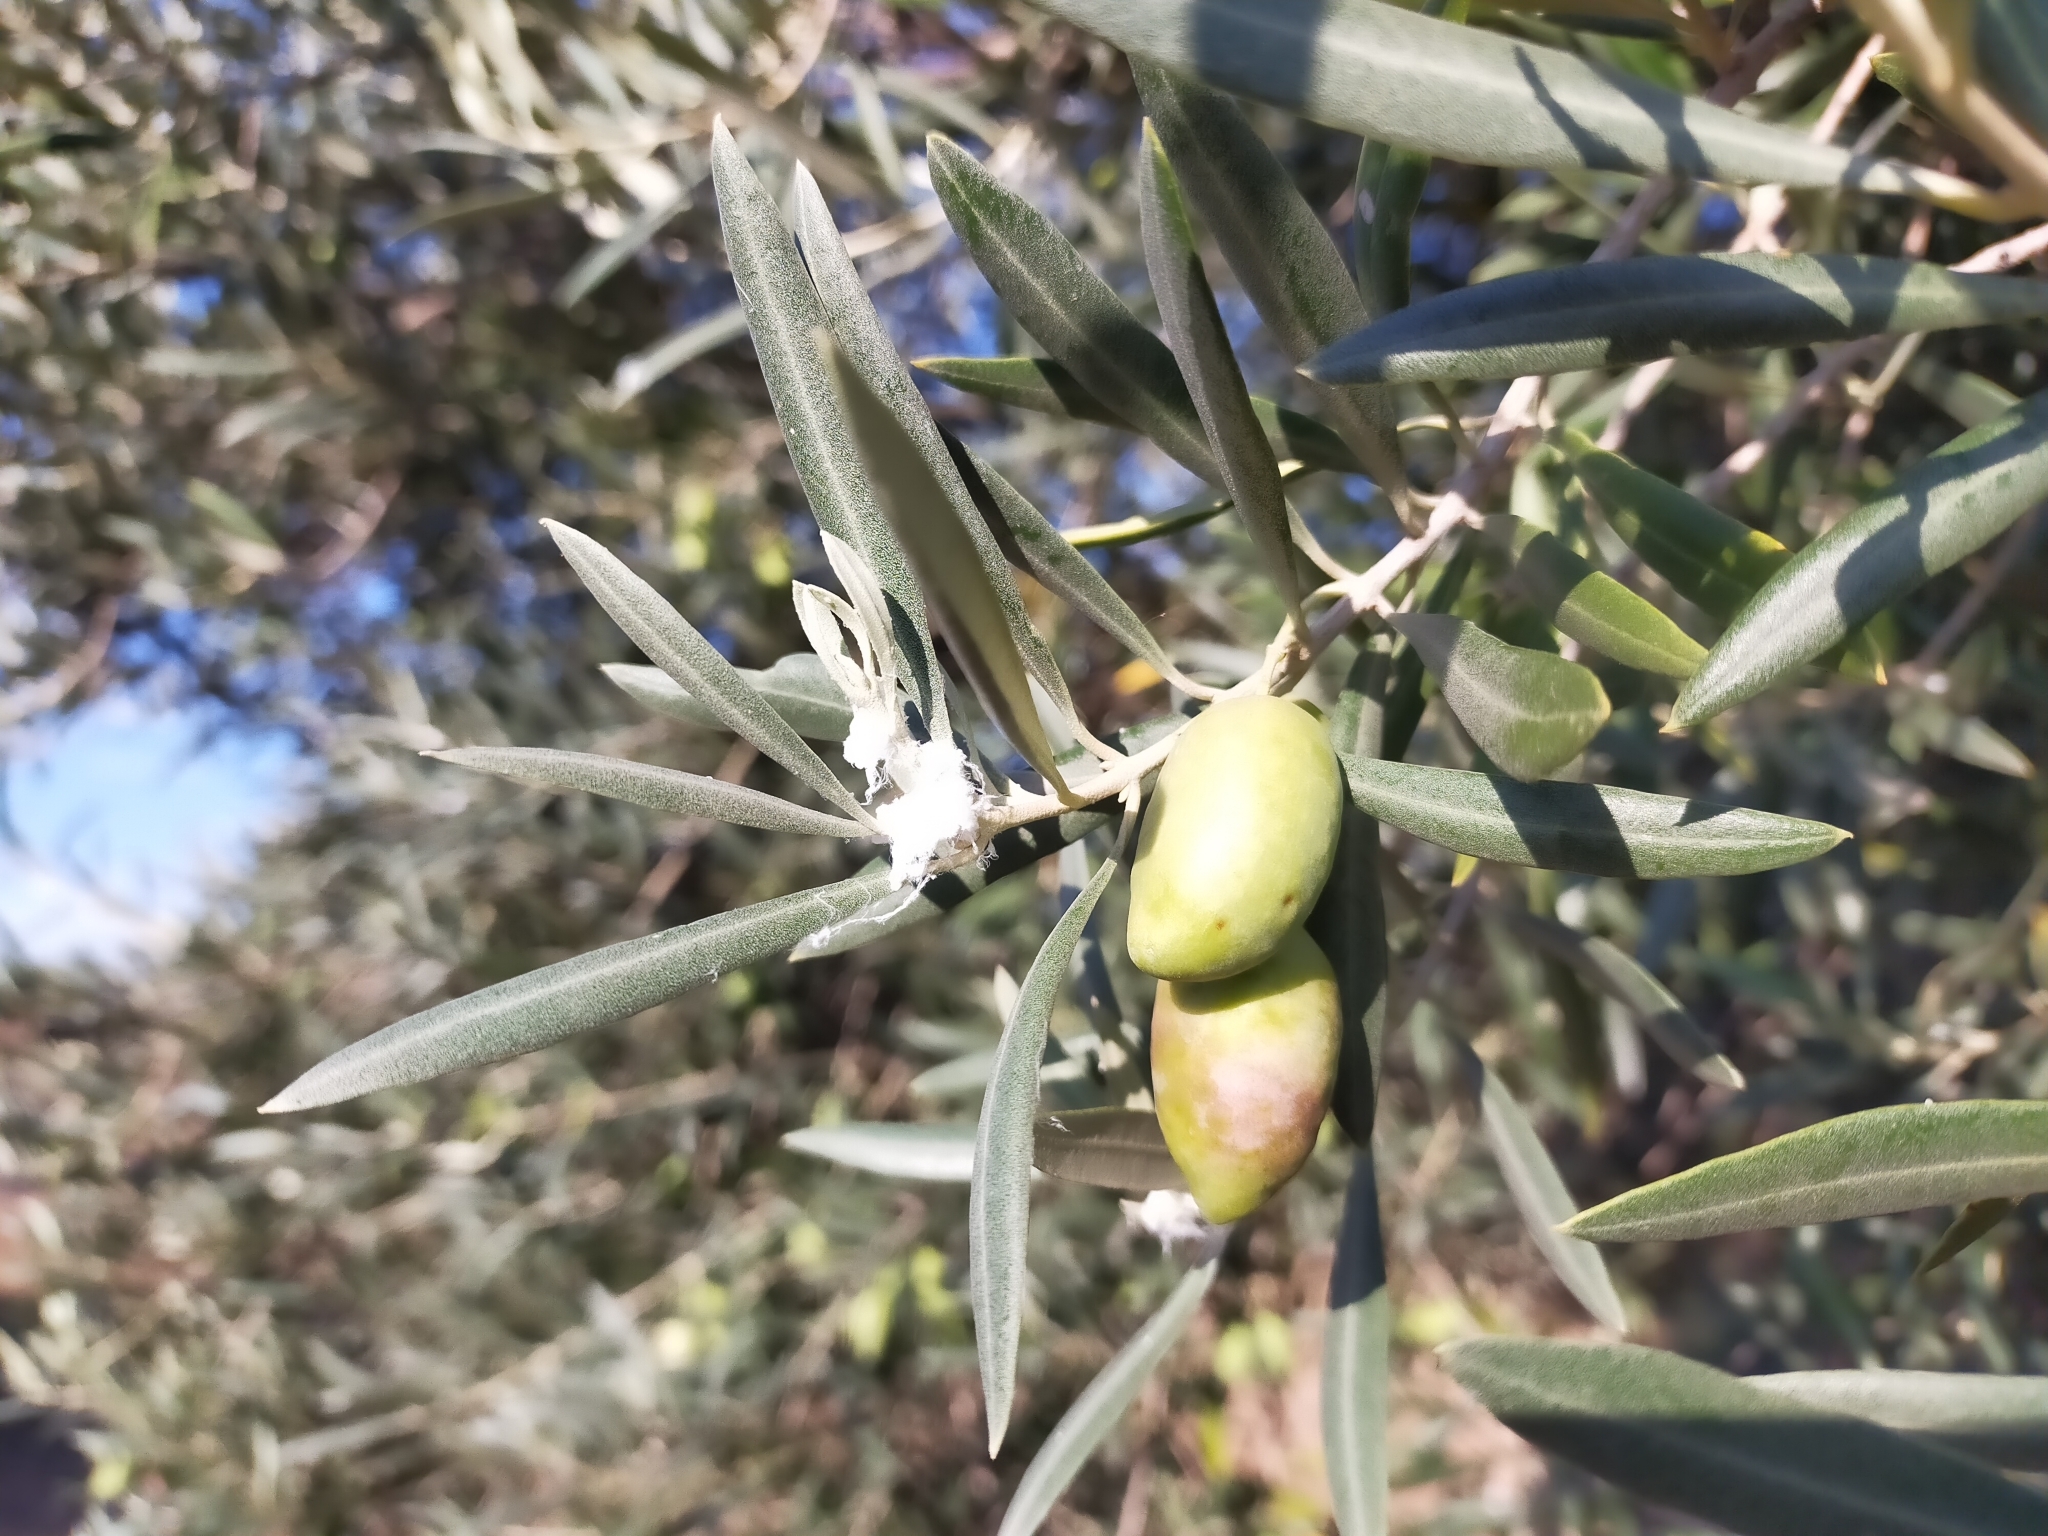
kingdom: Animalia
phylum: Arthropoda
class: Insecta
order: Hemiptera
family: Liviidae
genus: Euphyllura
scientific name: Euphyllura olivina
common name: Olive psyllid
